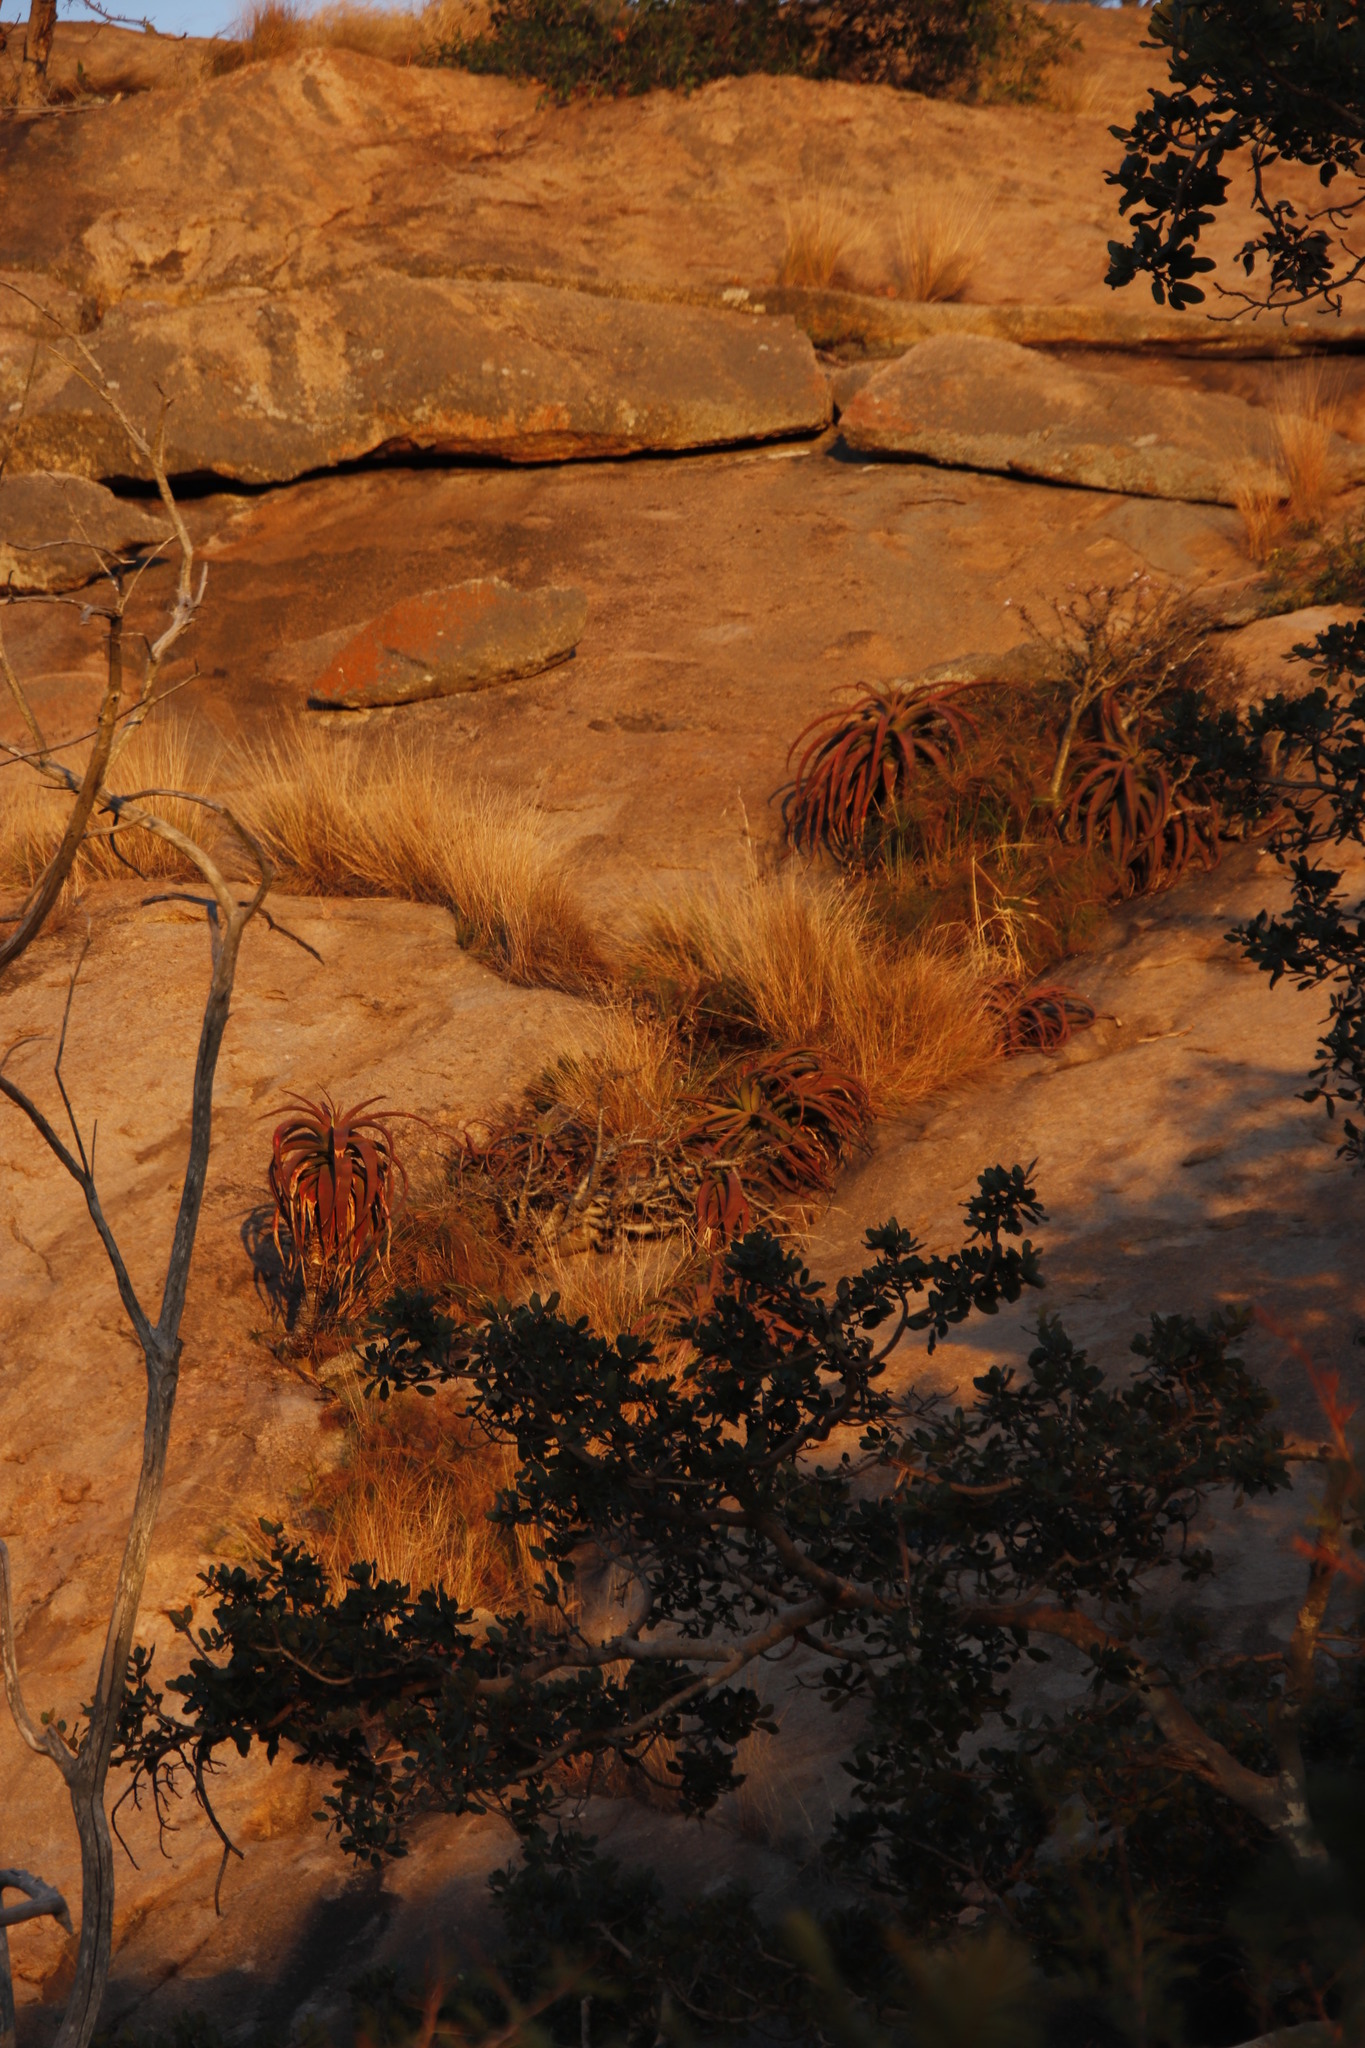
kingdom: Plantae
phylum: Tracheophyta
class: Liliopsida
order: Asparagales
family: Asphodelaceae
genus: Aloe
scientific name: Aloe spicata
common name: Gazaland aloe
